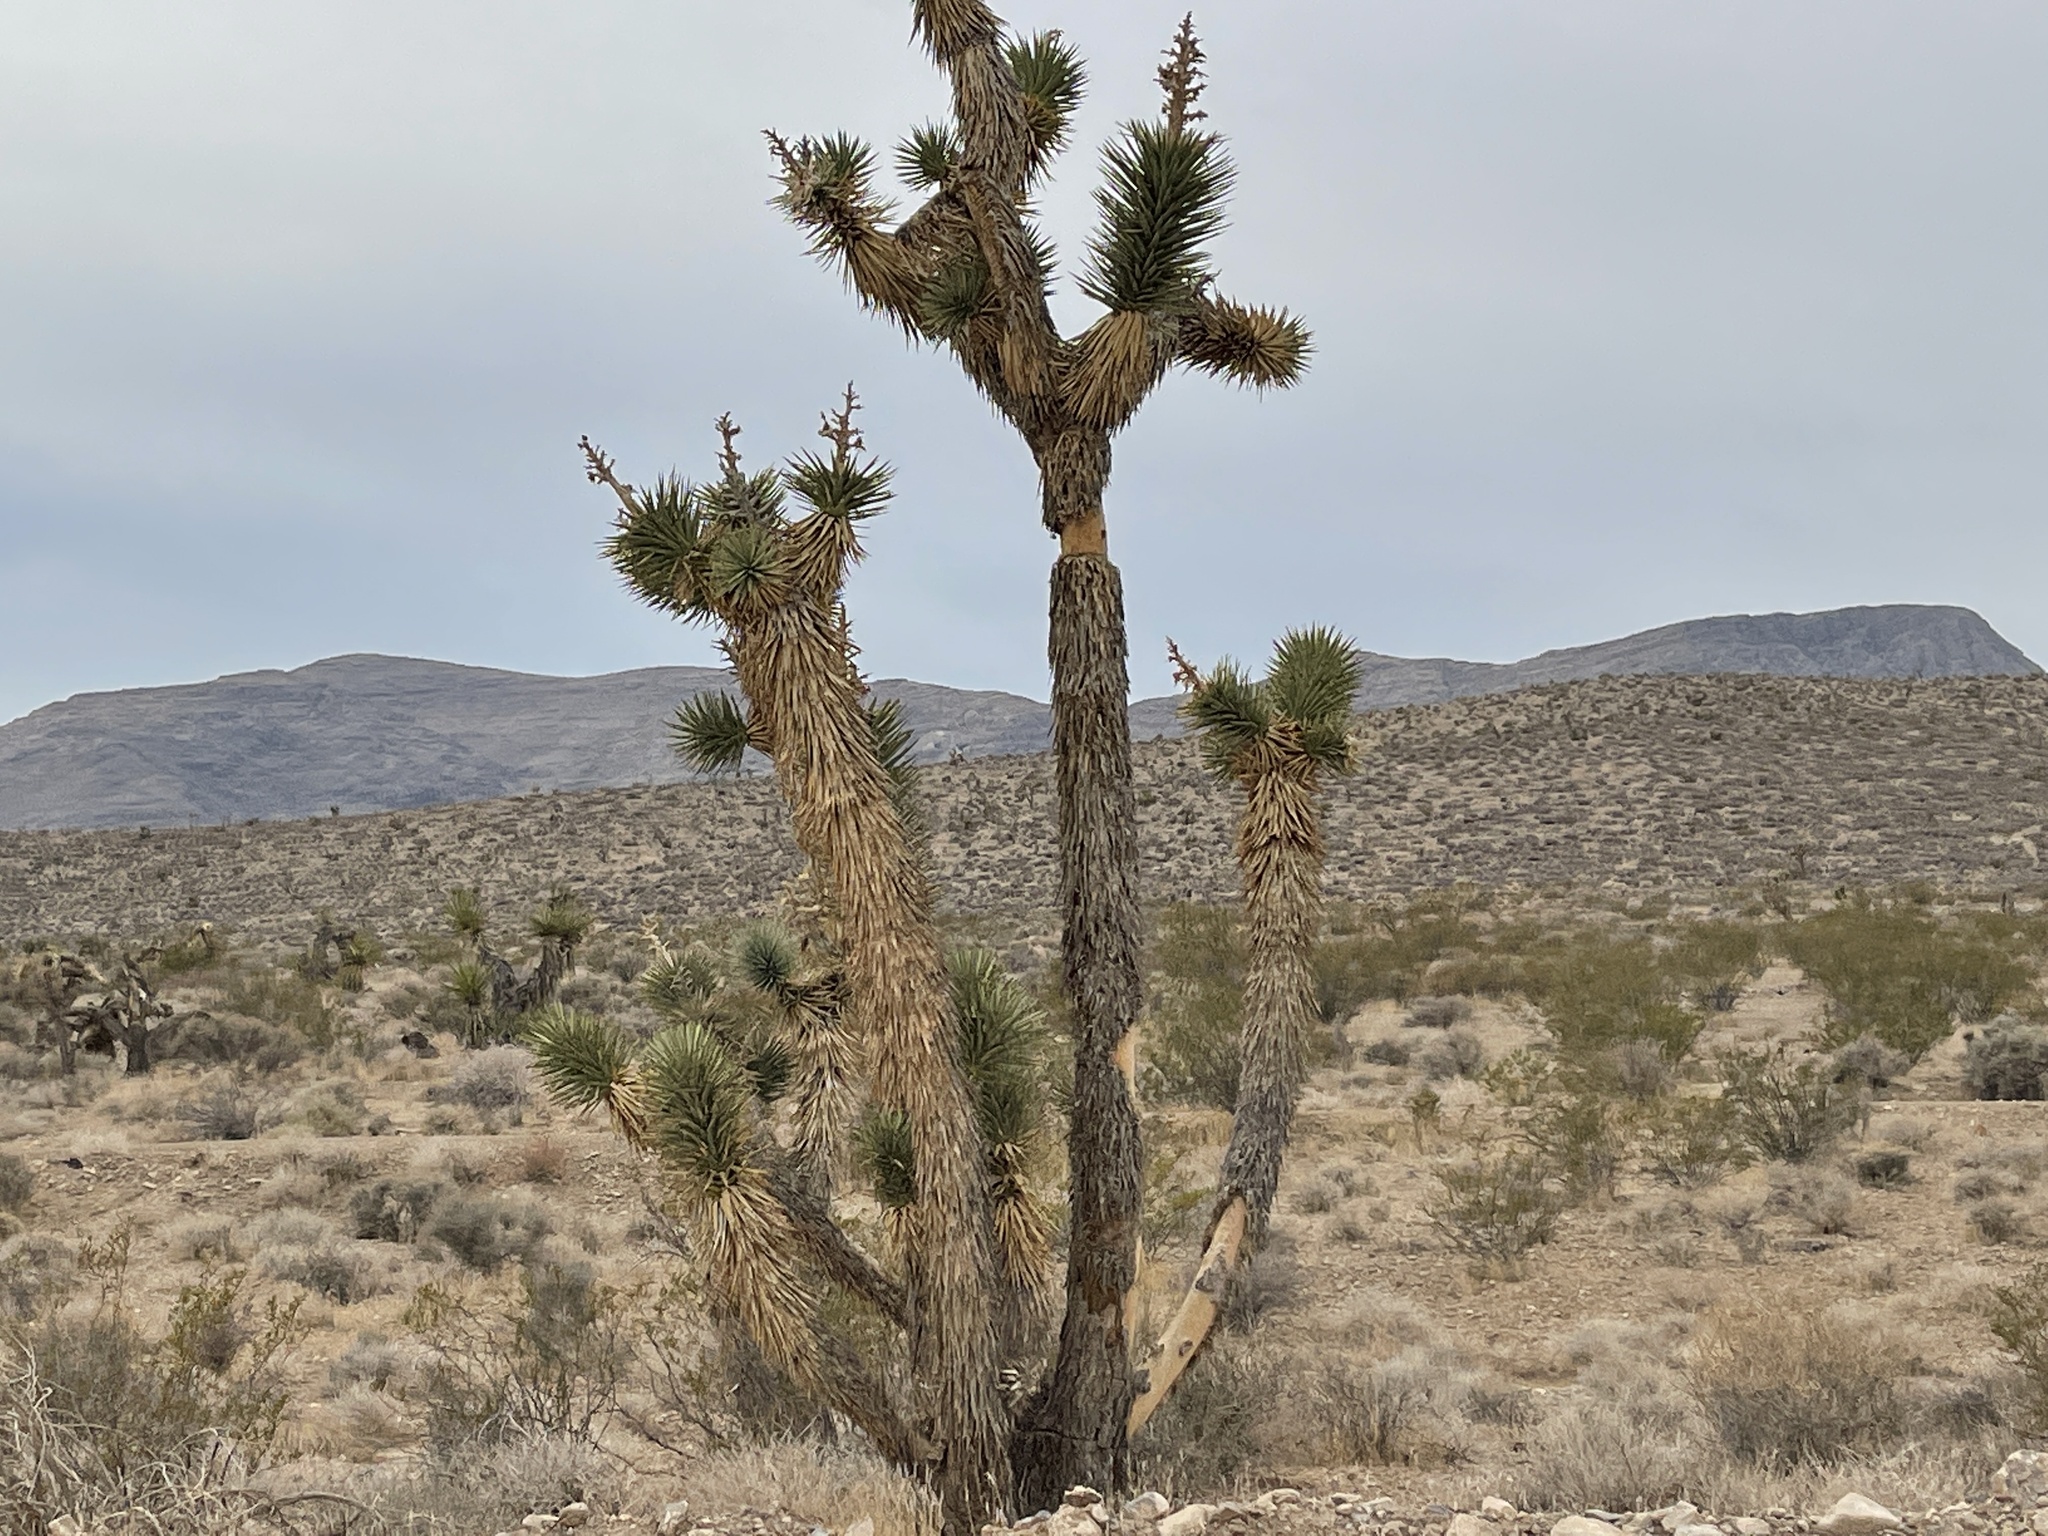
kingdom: Plantae
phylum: Tracheophyta
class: Liliopsida
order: Asparagales
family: Asparagaceae
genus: Yucca
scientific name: Yucca brevifolia
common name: Joshua tree
